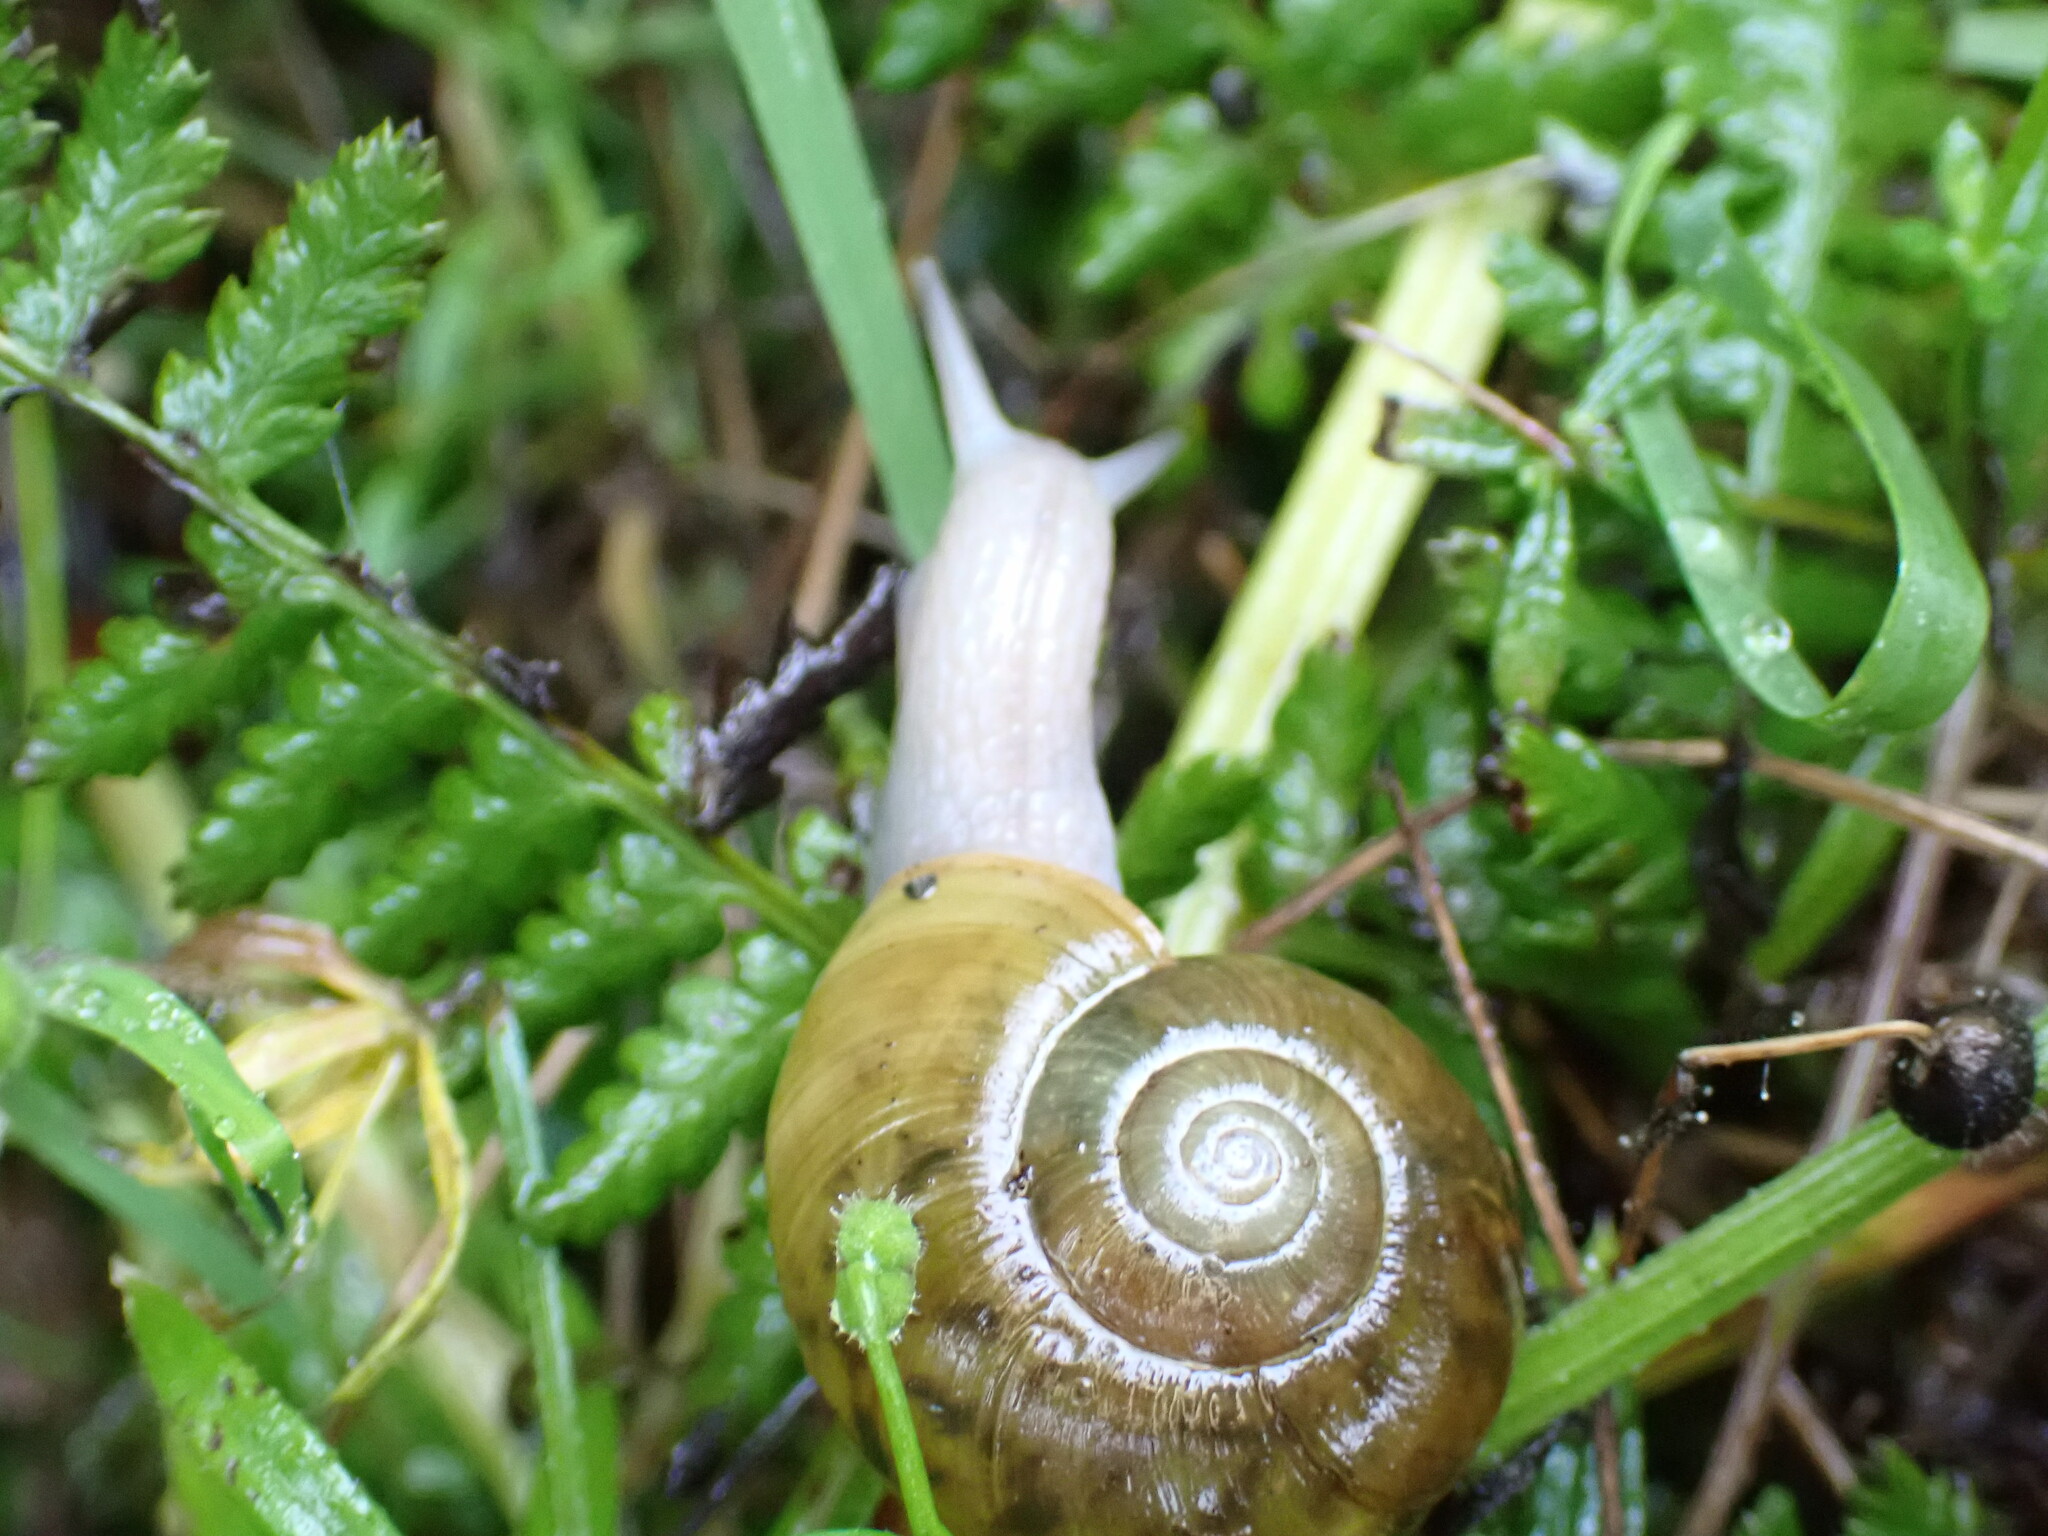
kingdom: Animalia
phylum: Mollusca
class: Gastropoda
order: Stylommatophora
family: Haplotrematidae
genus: Haplotrema
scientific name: Haplotrema vancouverense
